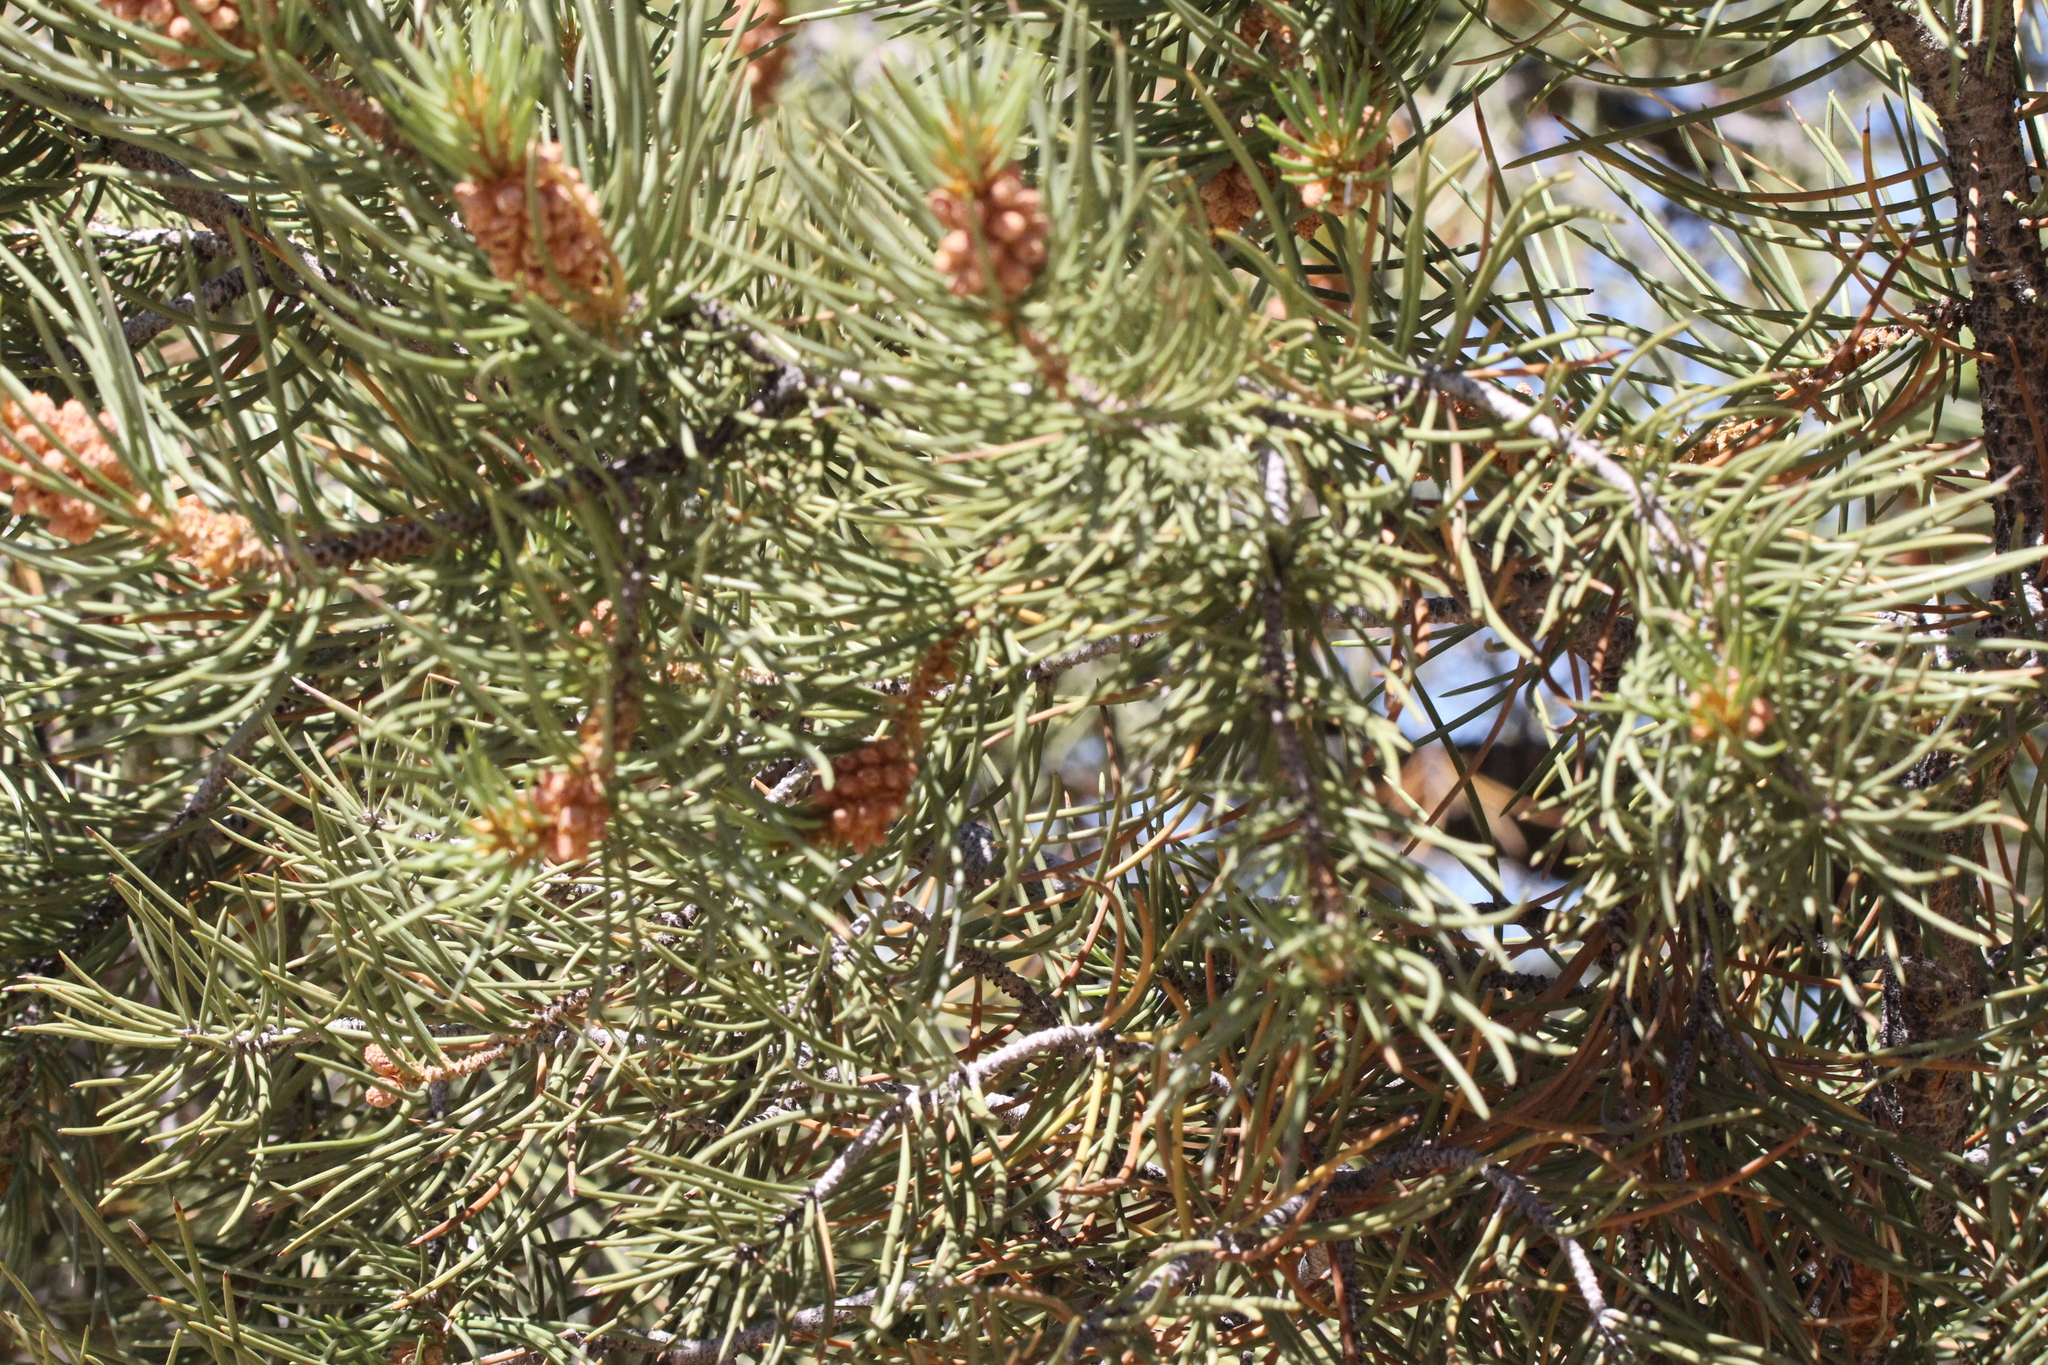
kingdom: Plantae
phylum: Tracheophyta
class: Pinopsida
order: Pinales
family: Pinaceae
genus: Pinus
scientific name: Pinus monophylla
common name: One-leaved nut pine
